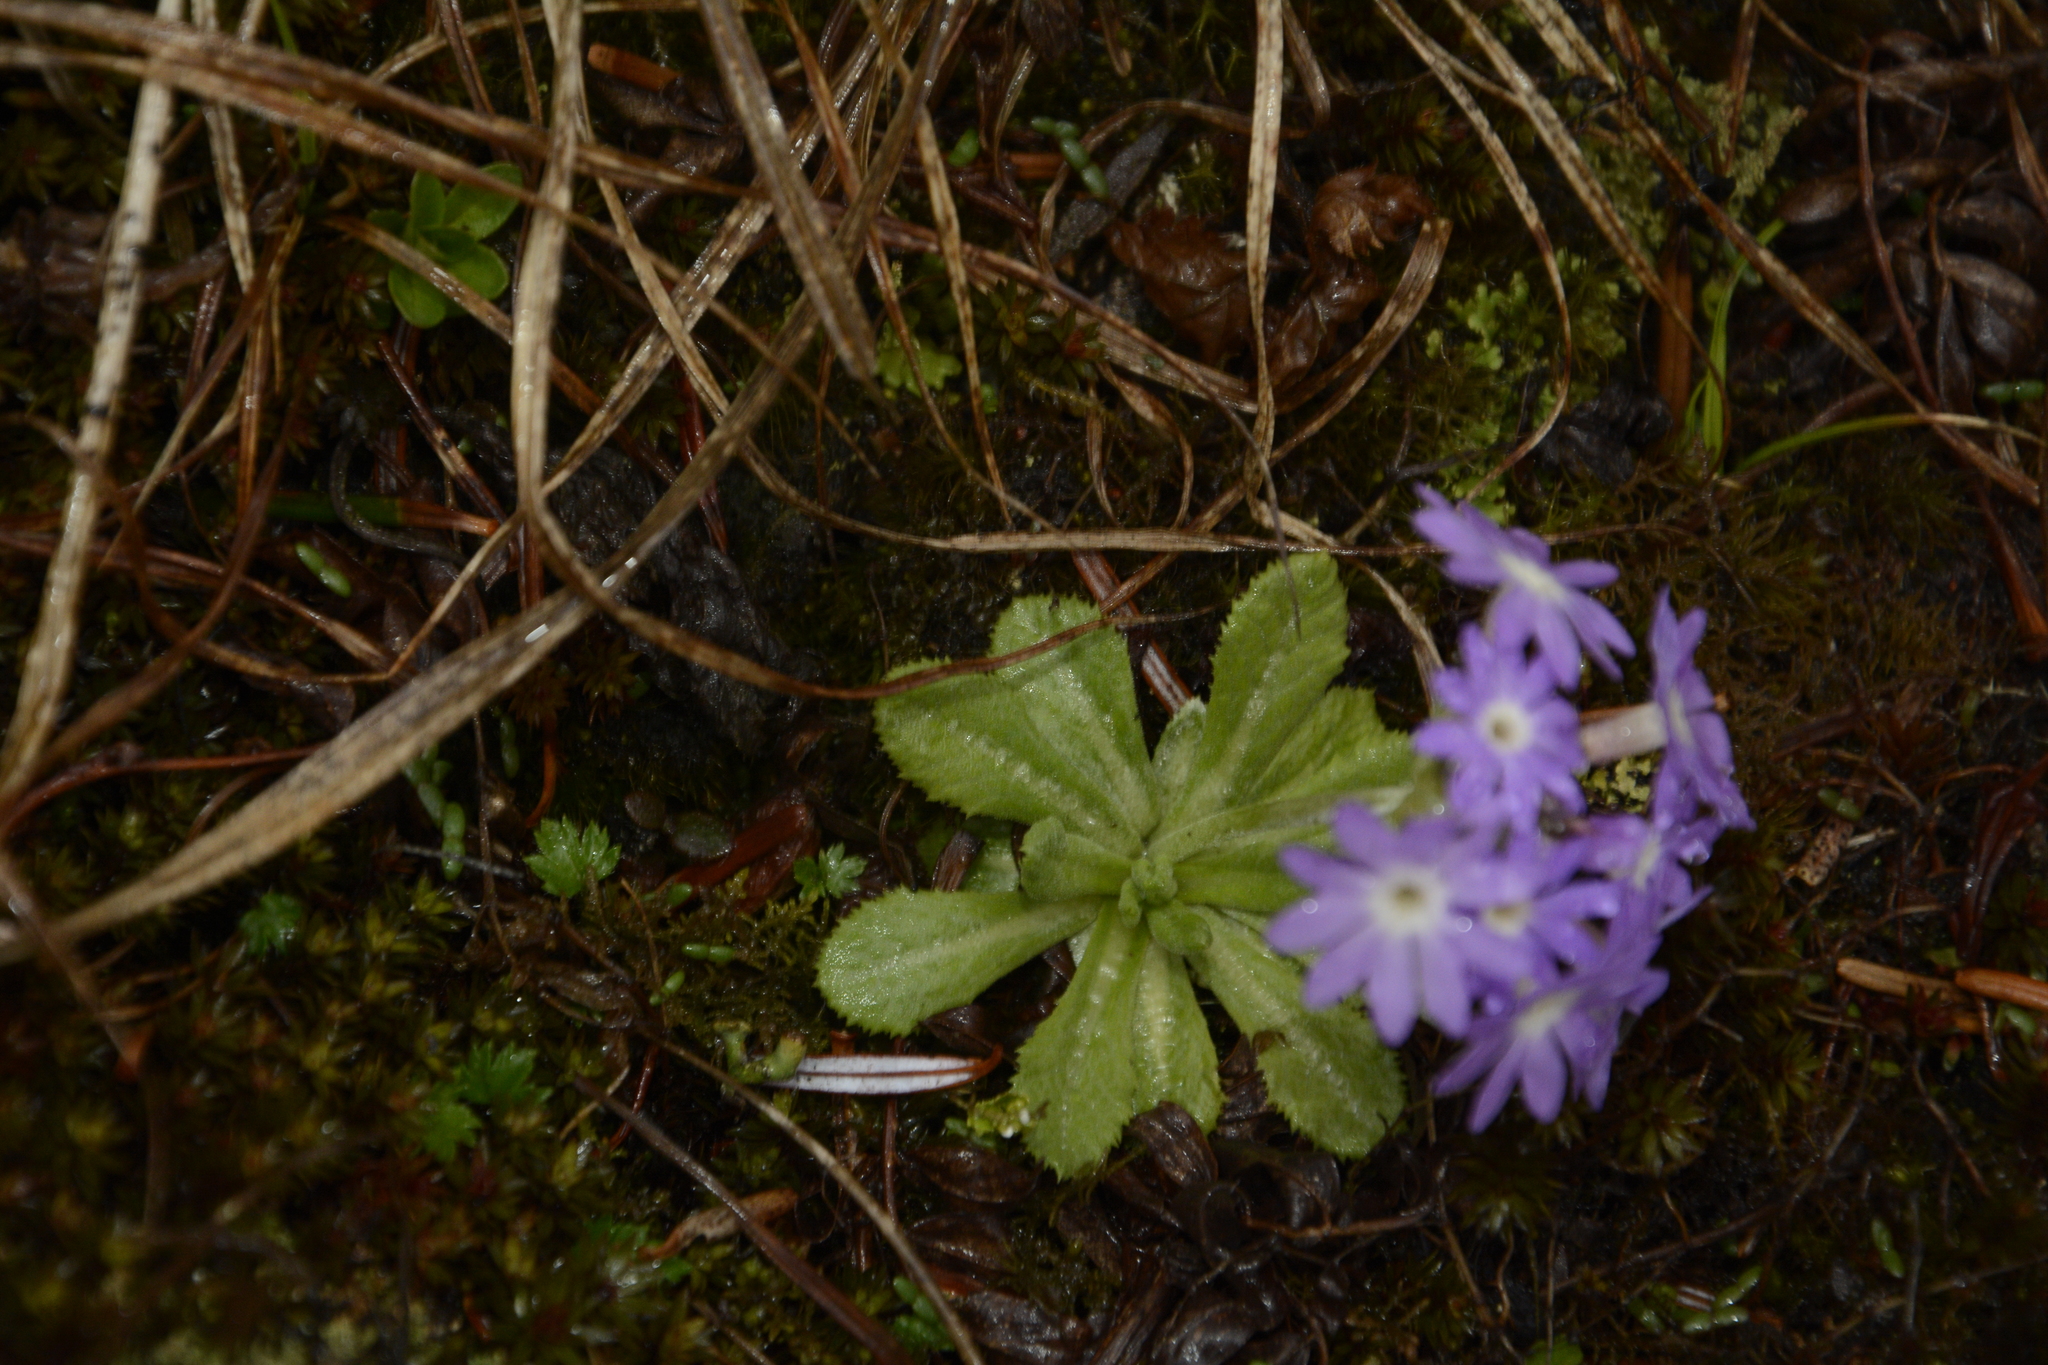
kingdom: Plantae
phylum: Tracheophyta
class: Magnoliopsida
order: Ericales
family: Primulaceae
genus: Primula
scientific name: Primula atrodentata
